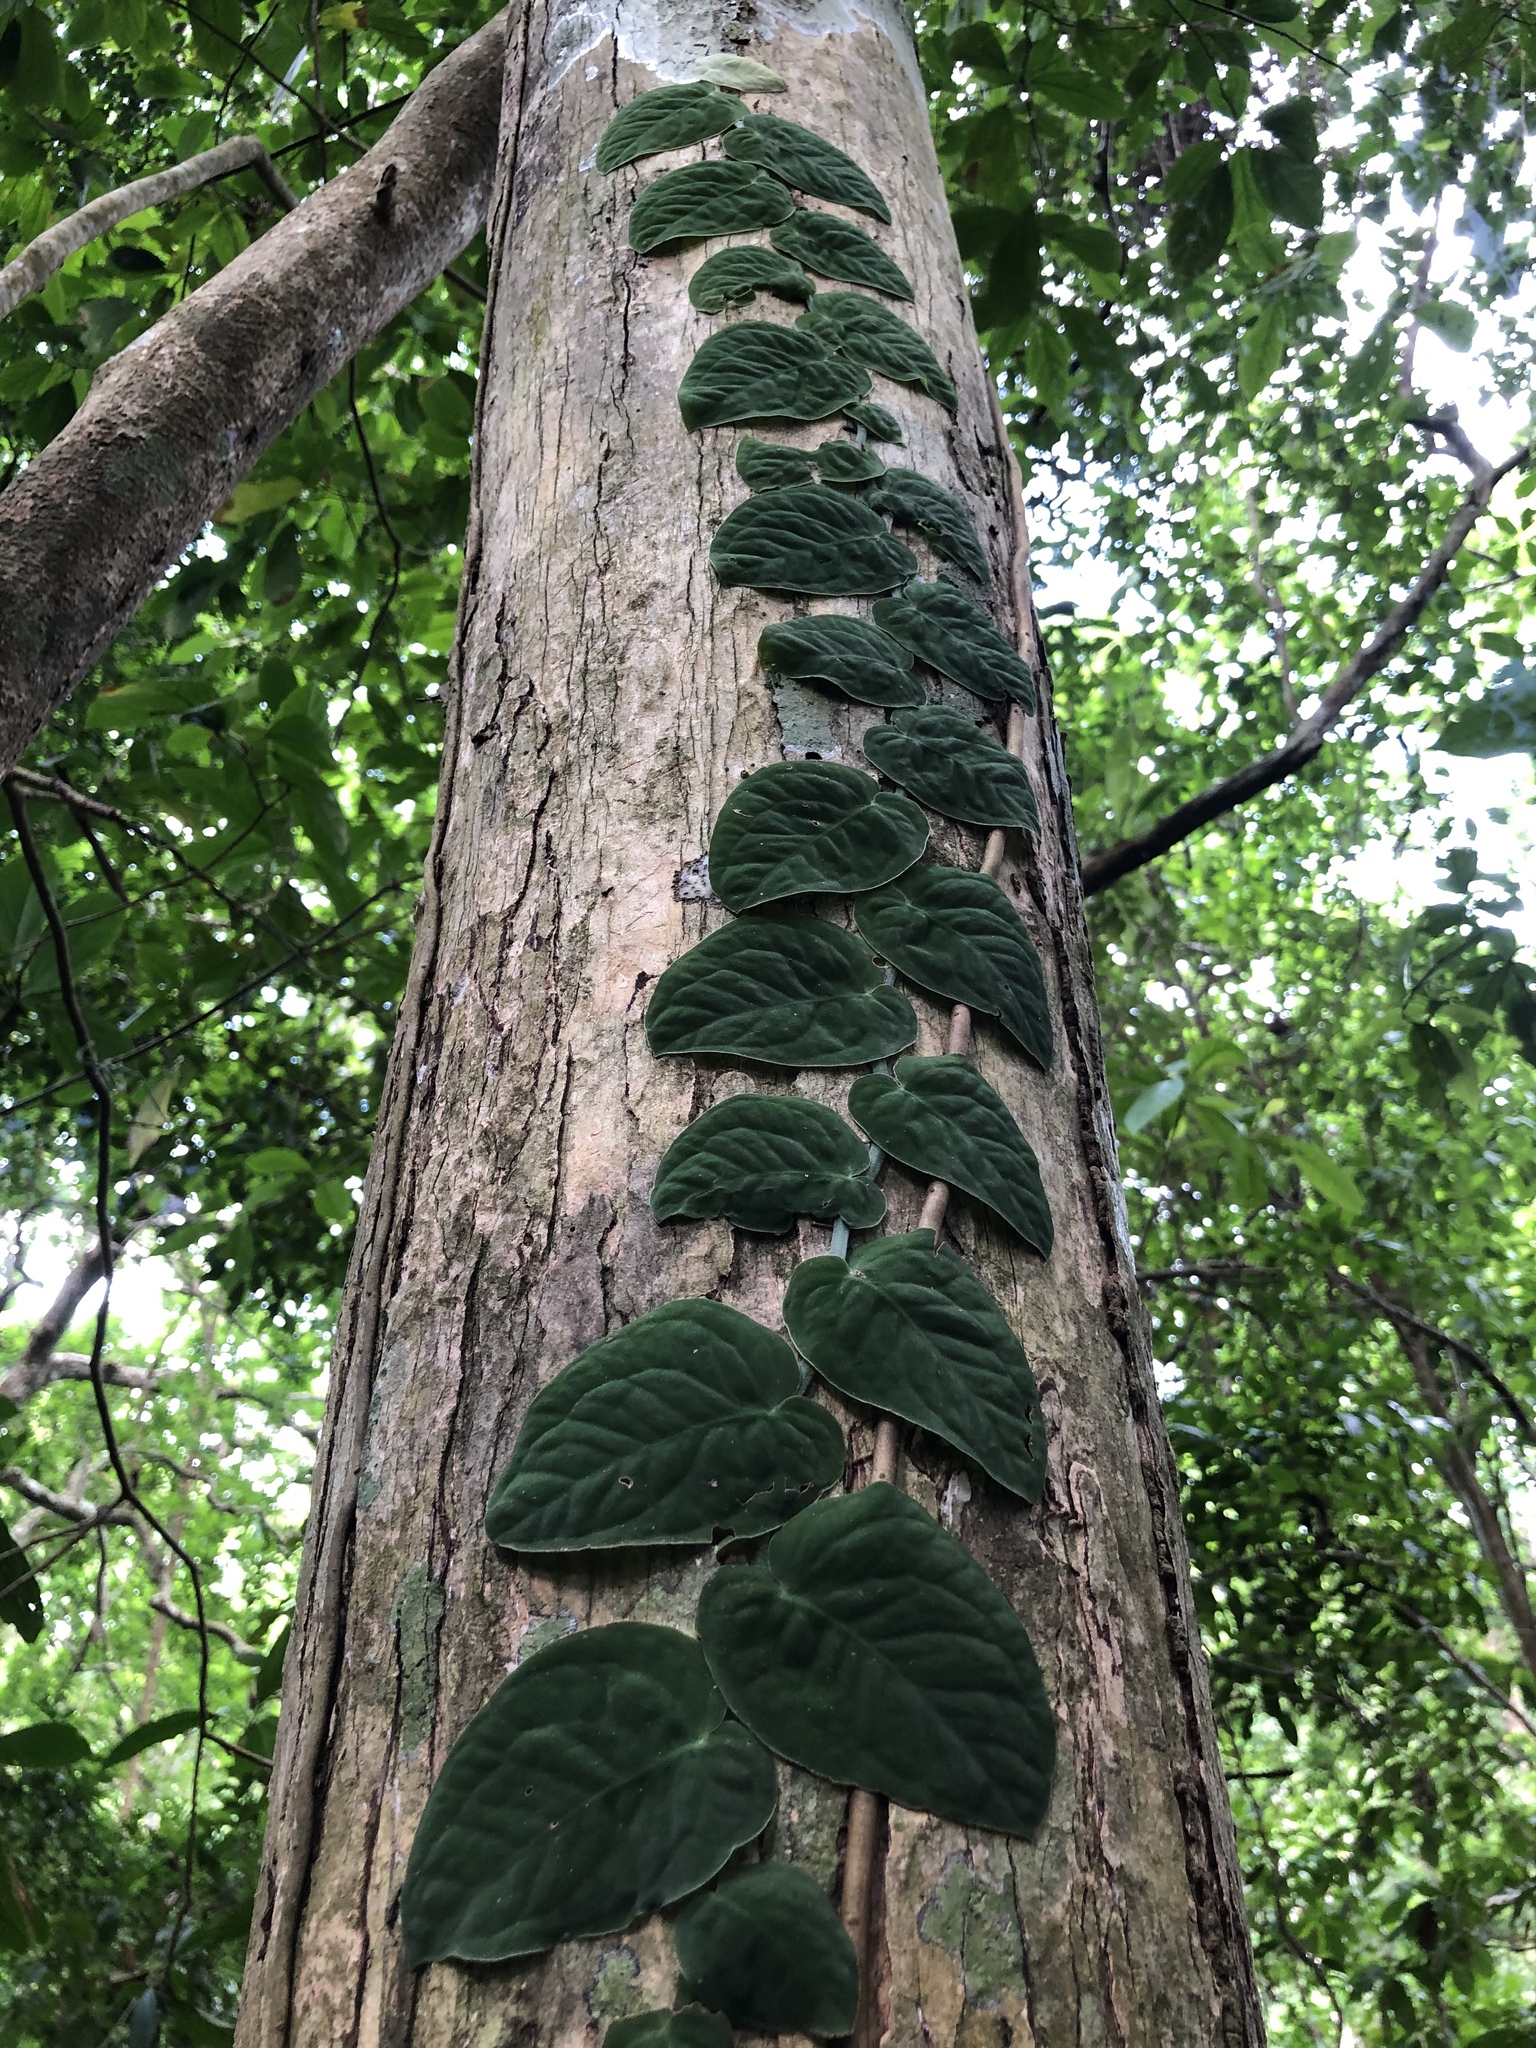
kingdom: Plantae
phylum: Tracheophyta
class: Liliopsida
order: Alismatales
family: Araceae
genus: Monstera
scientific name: Monstera dubia
